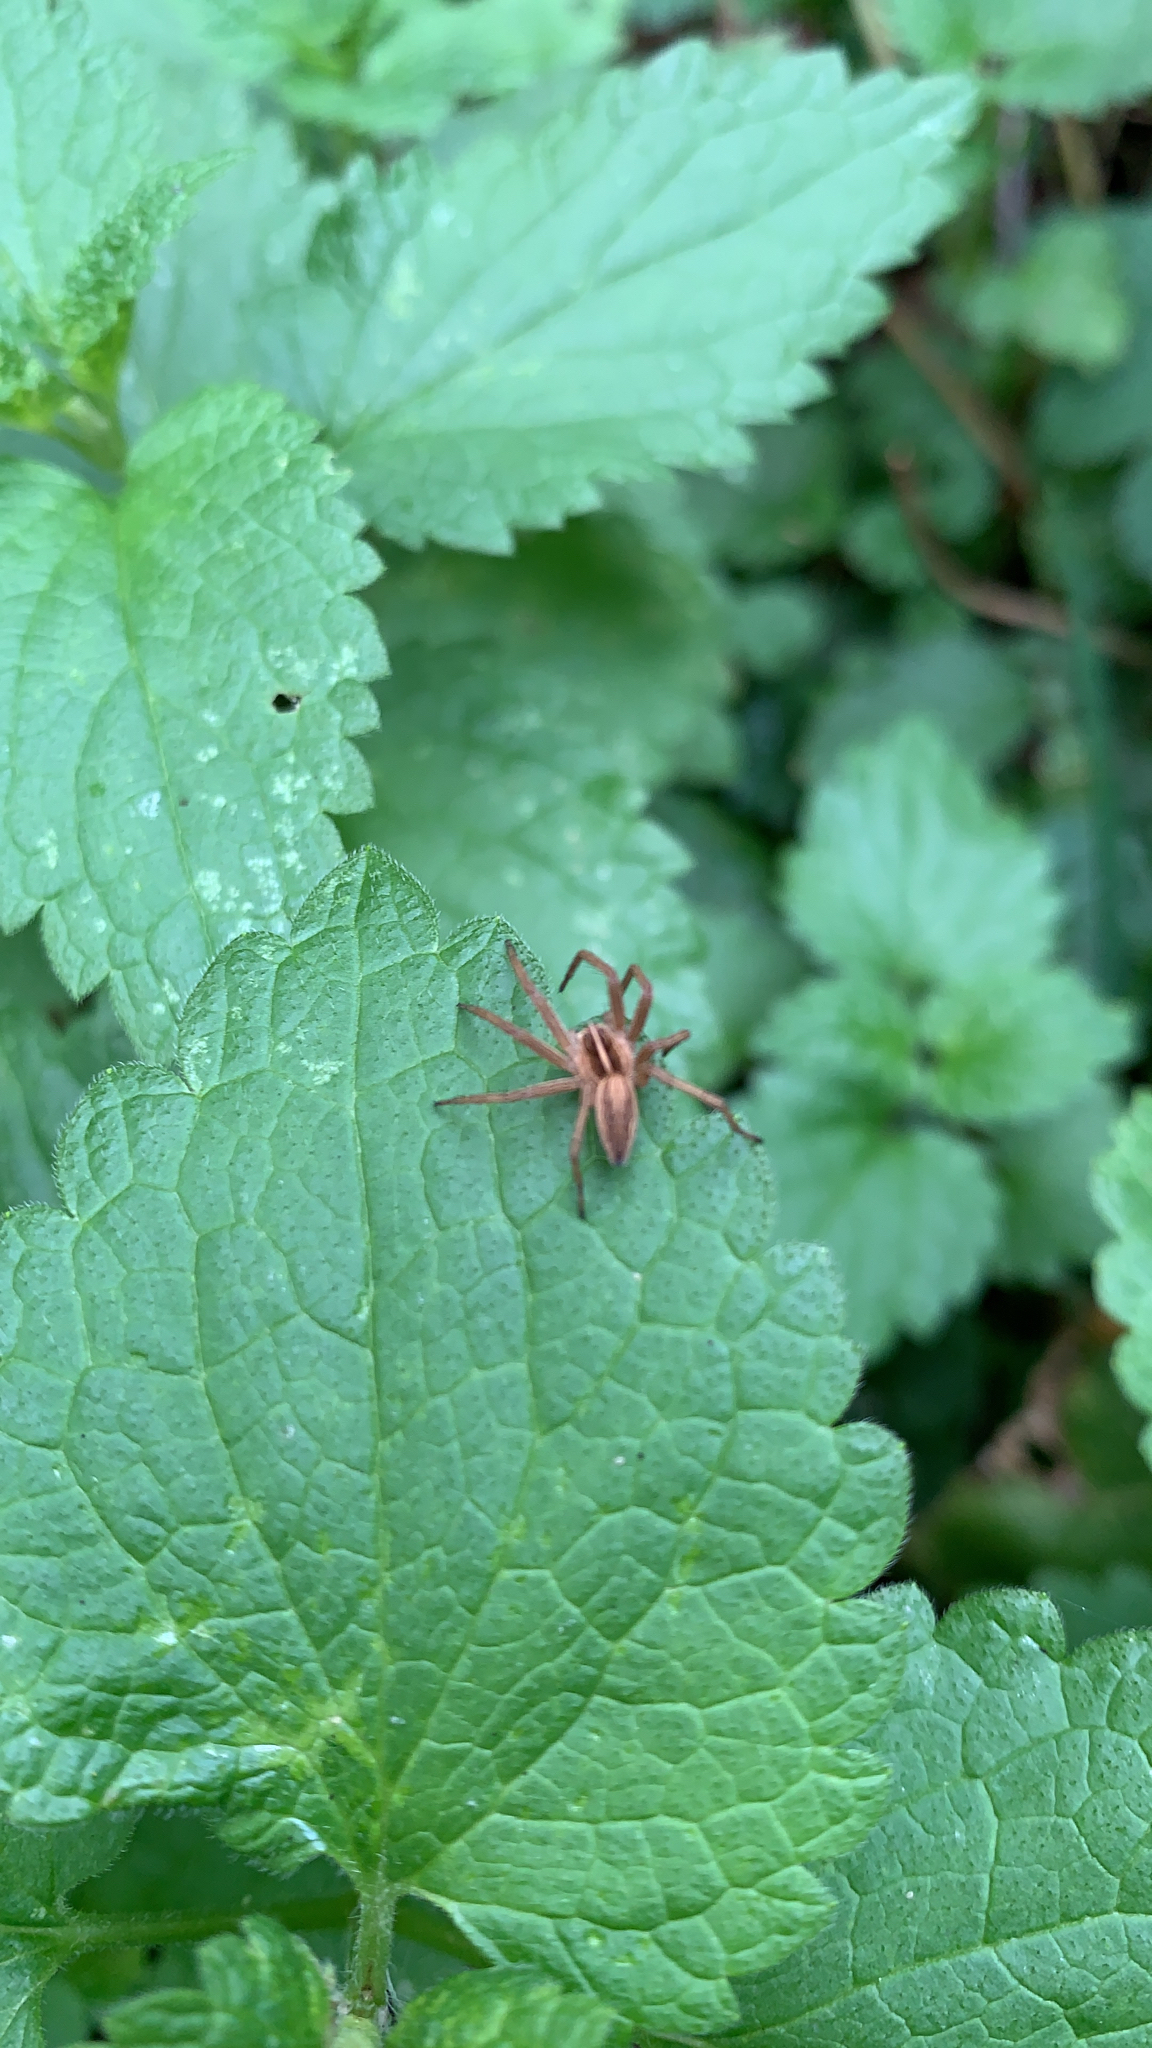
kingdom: Animalia
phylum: Arthropoda
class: Arachnida
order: Araneae
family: Pisauridae
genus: Pisaura
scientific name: Pisaura mirabilis
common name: Tent spider
